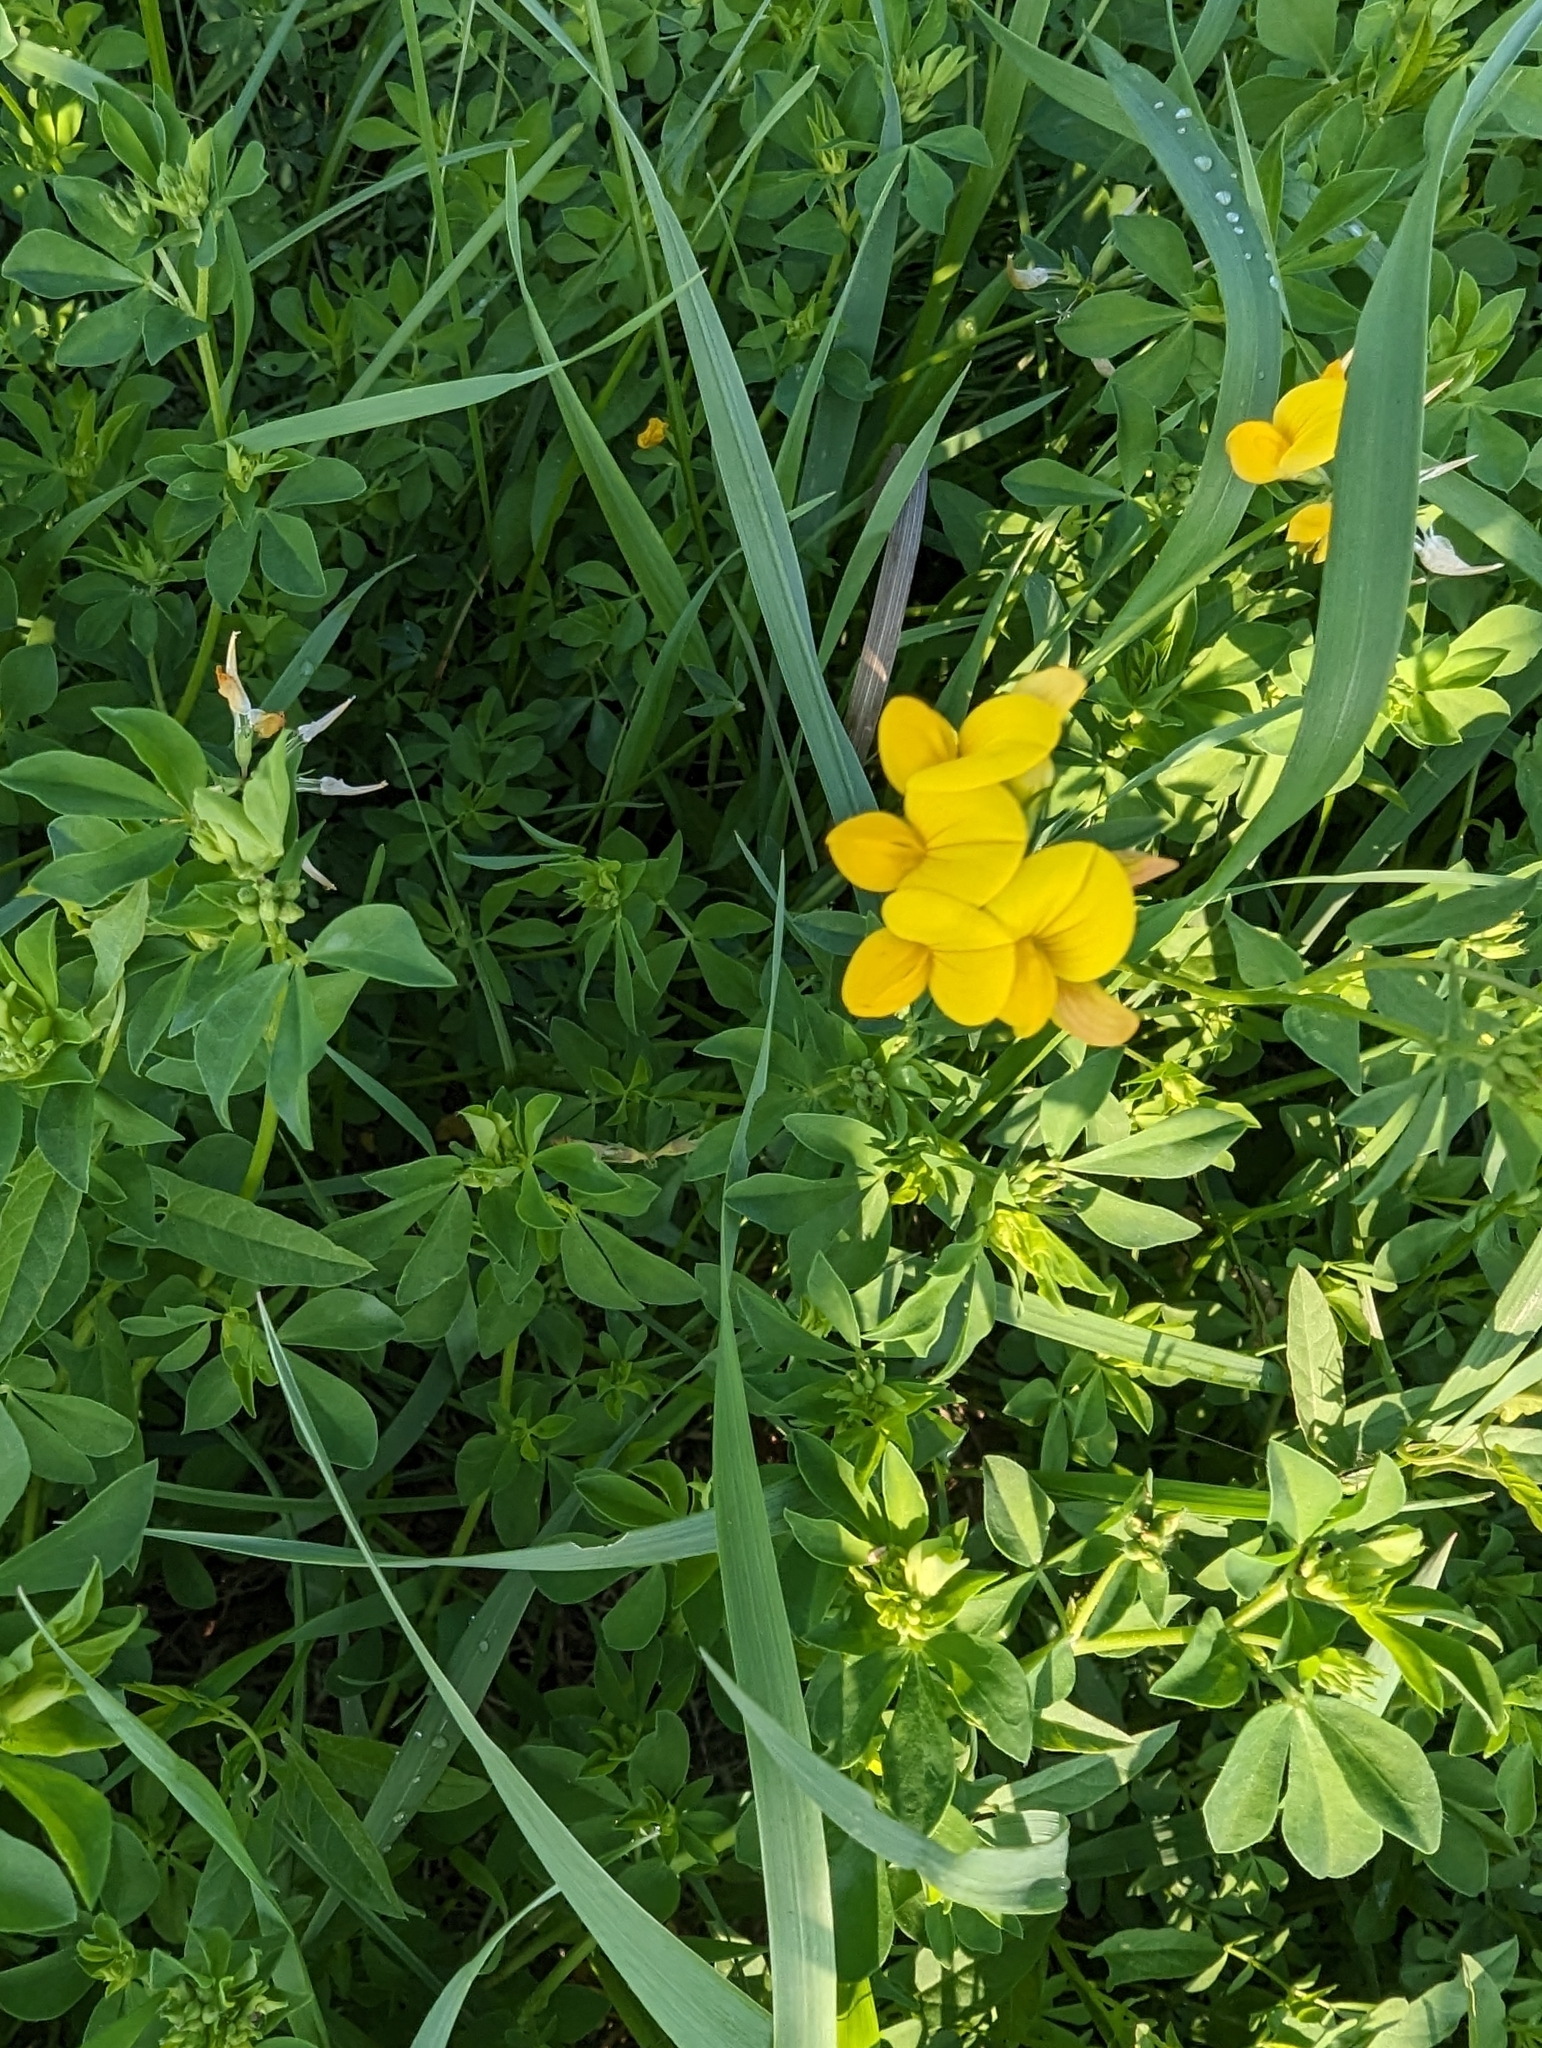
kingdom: Plantae
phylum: Tracheophyta
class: Magnoliopsida
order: Fabales
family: Fabaceae
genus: Lotus
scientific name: Lotus corniculatus
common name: Common bird's-foot-trefoil
